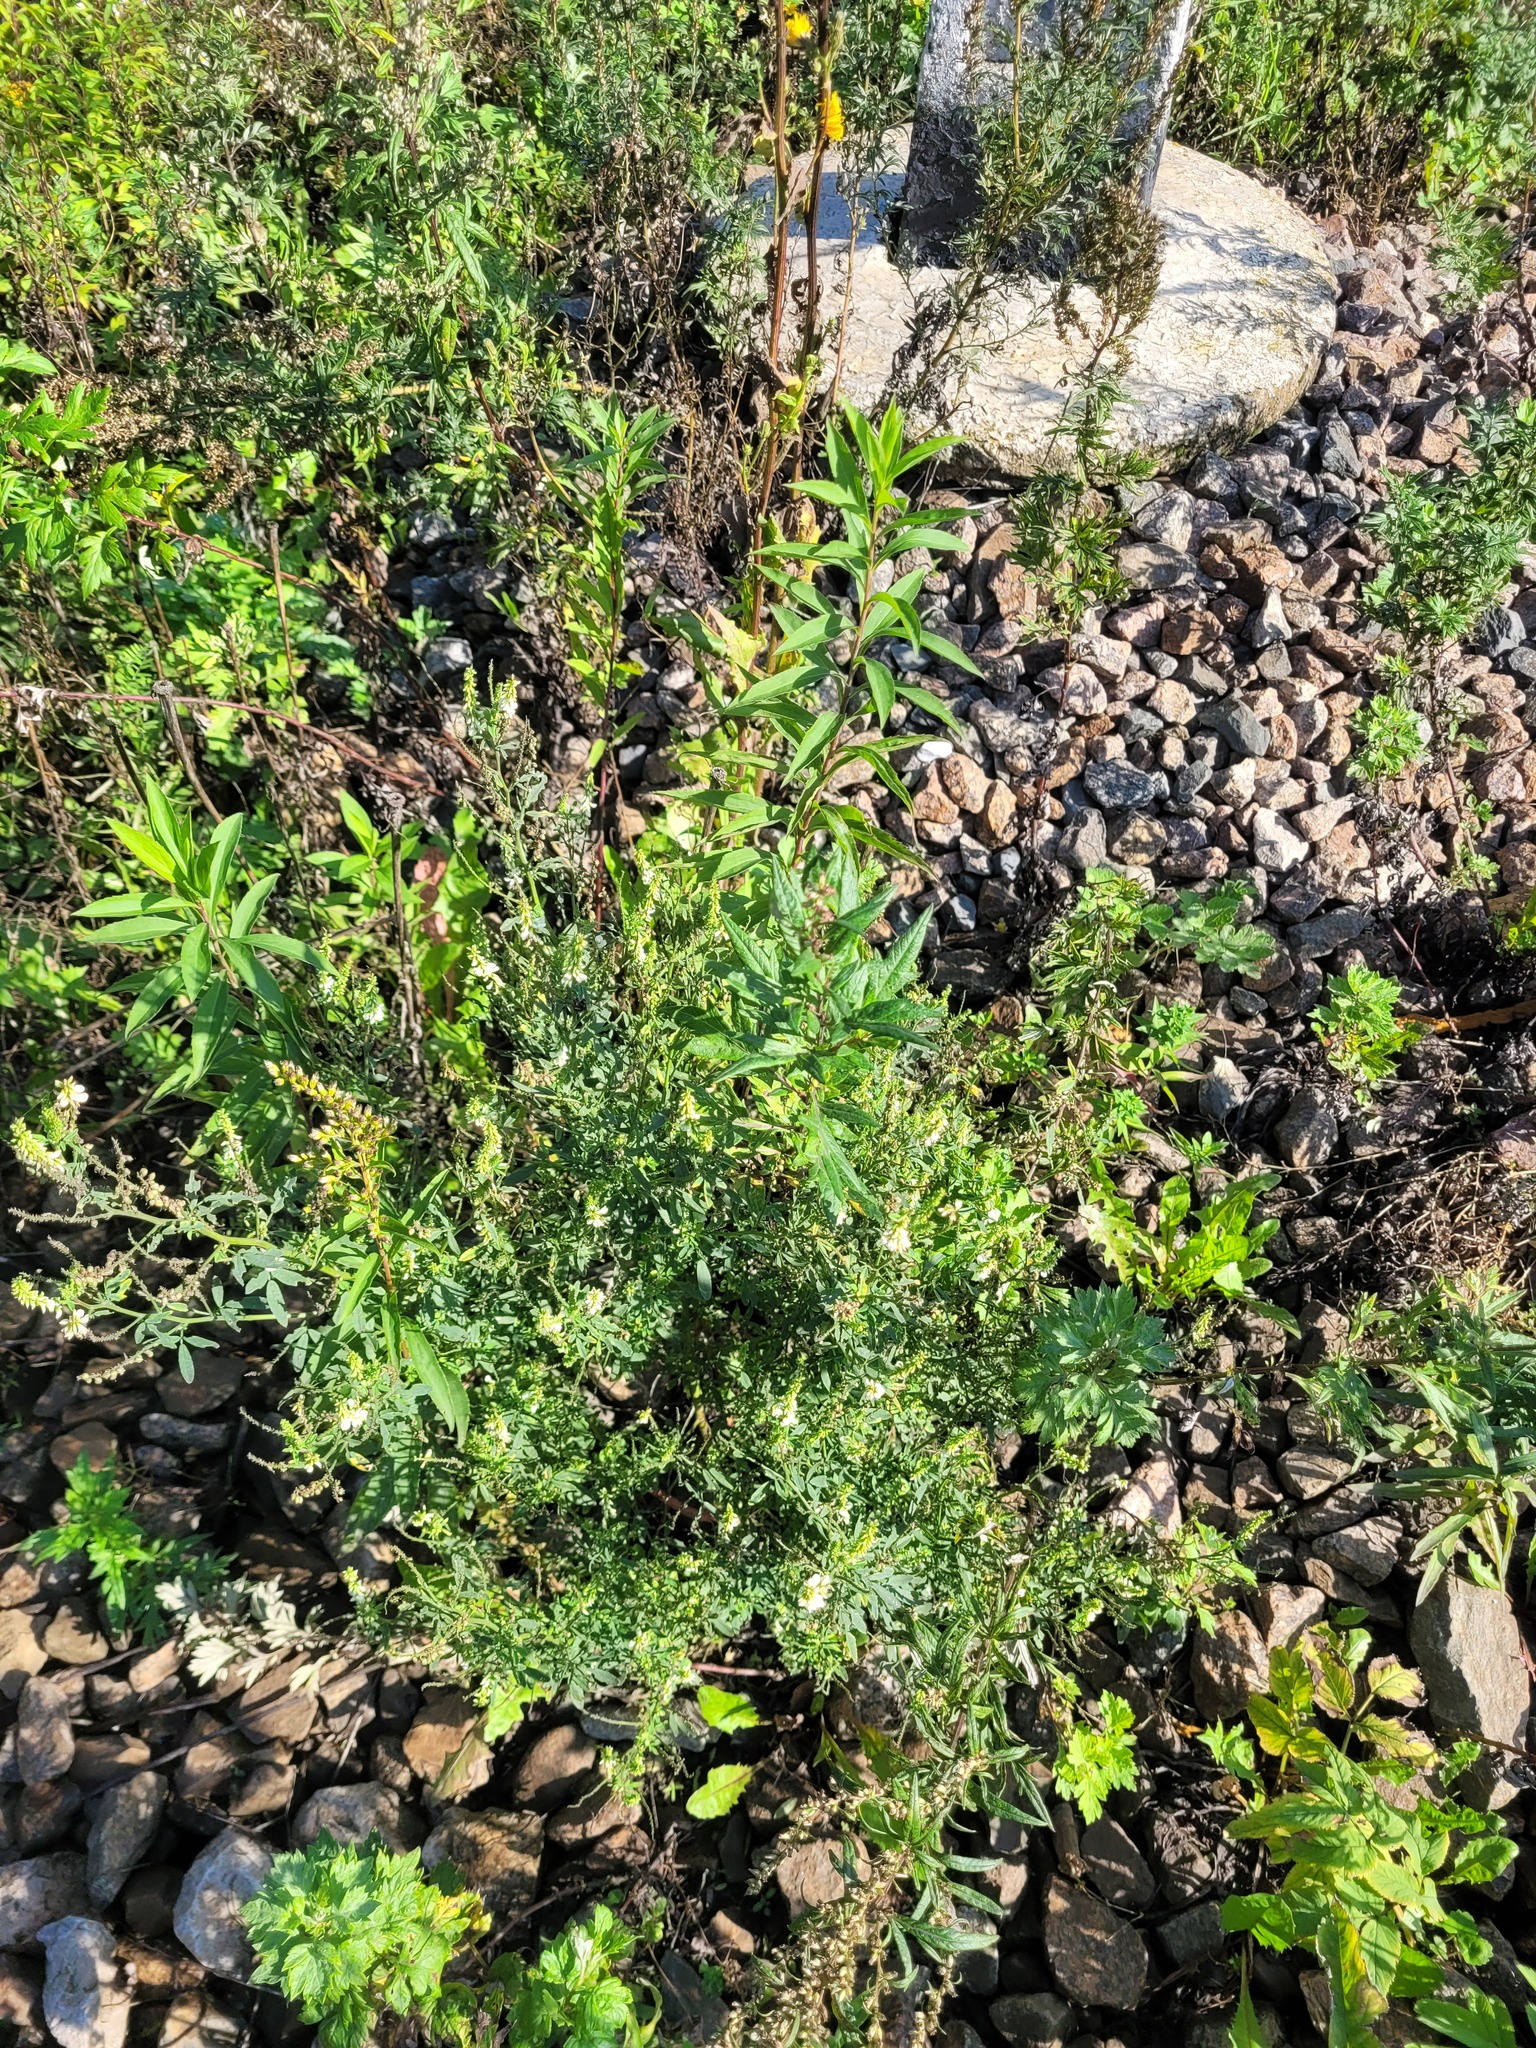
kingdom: Plantae
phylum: Tracheophyta
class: Magnoliopsida
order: Fabales
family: Fabaceae
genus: Melilotus
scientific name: Melilotus albus
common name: White melilot
